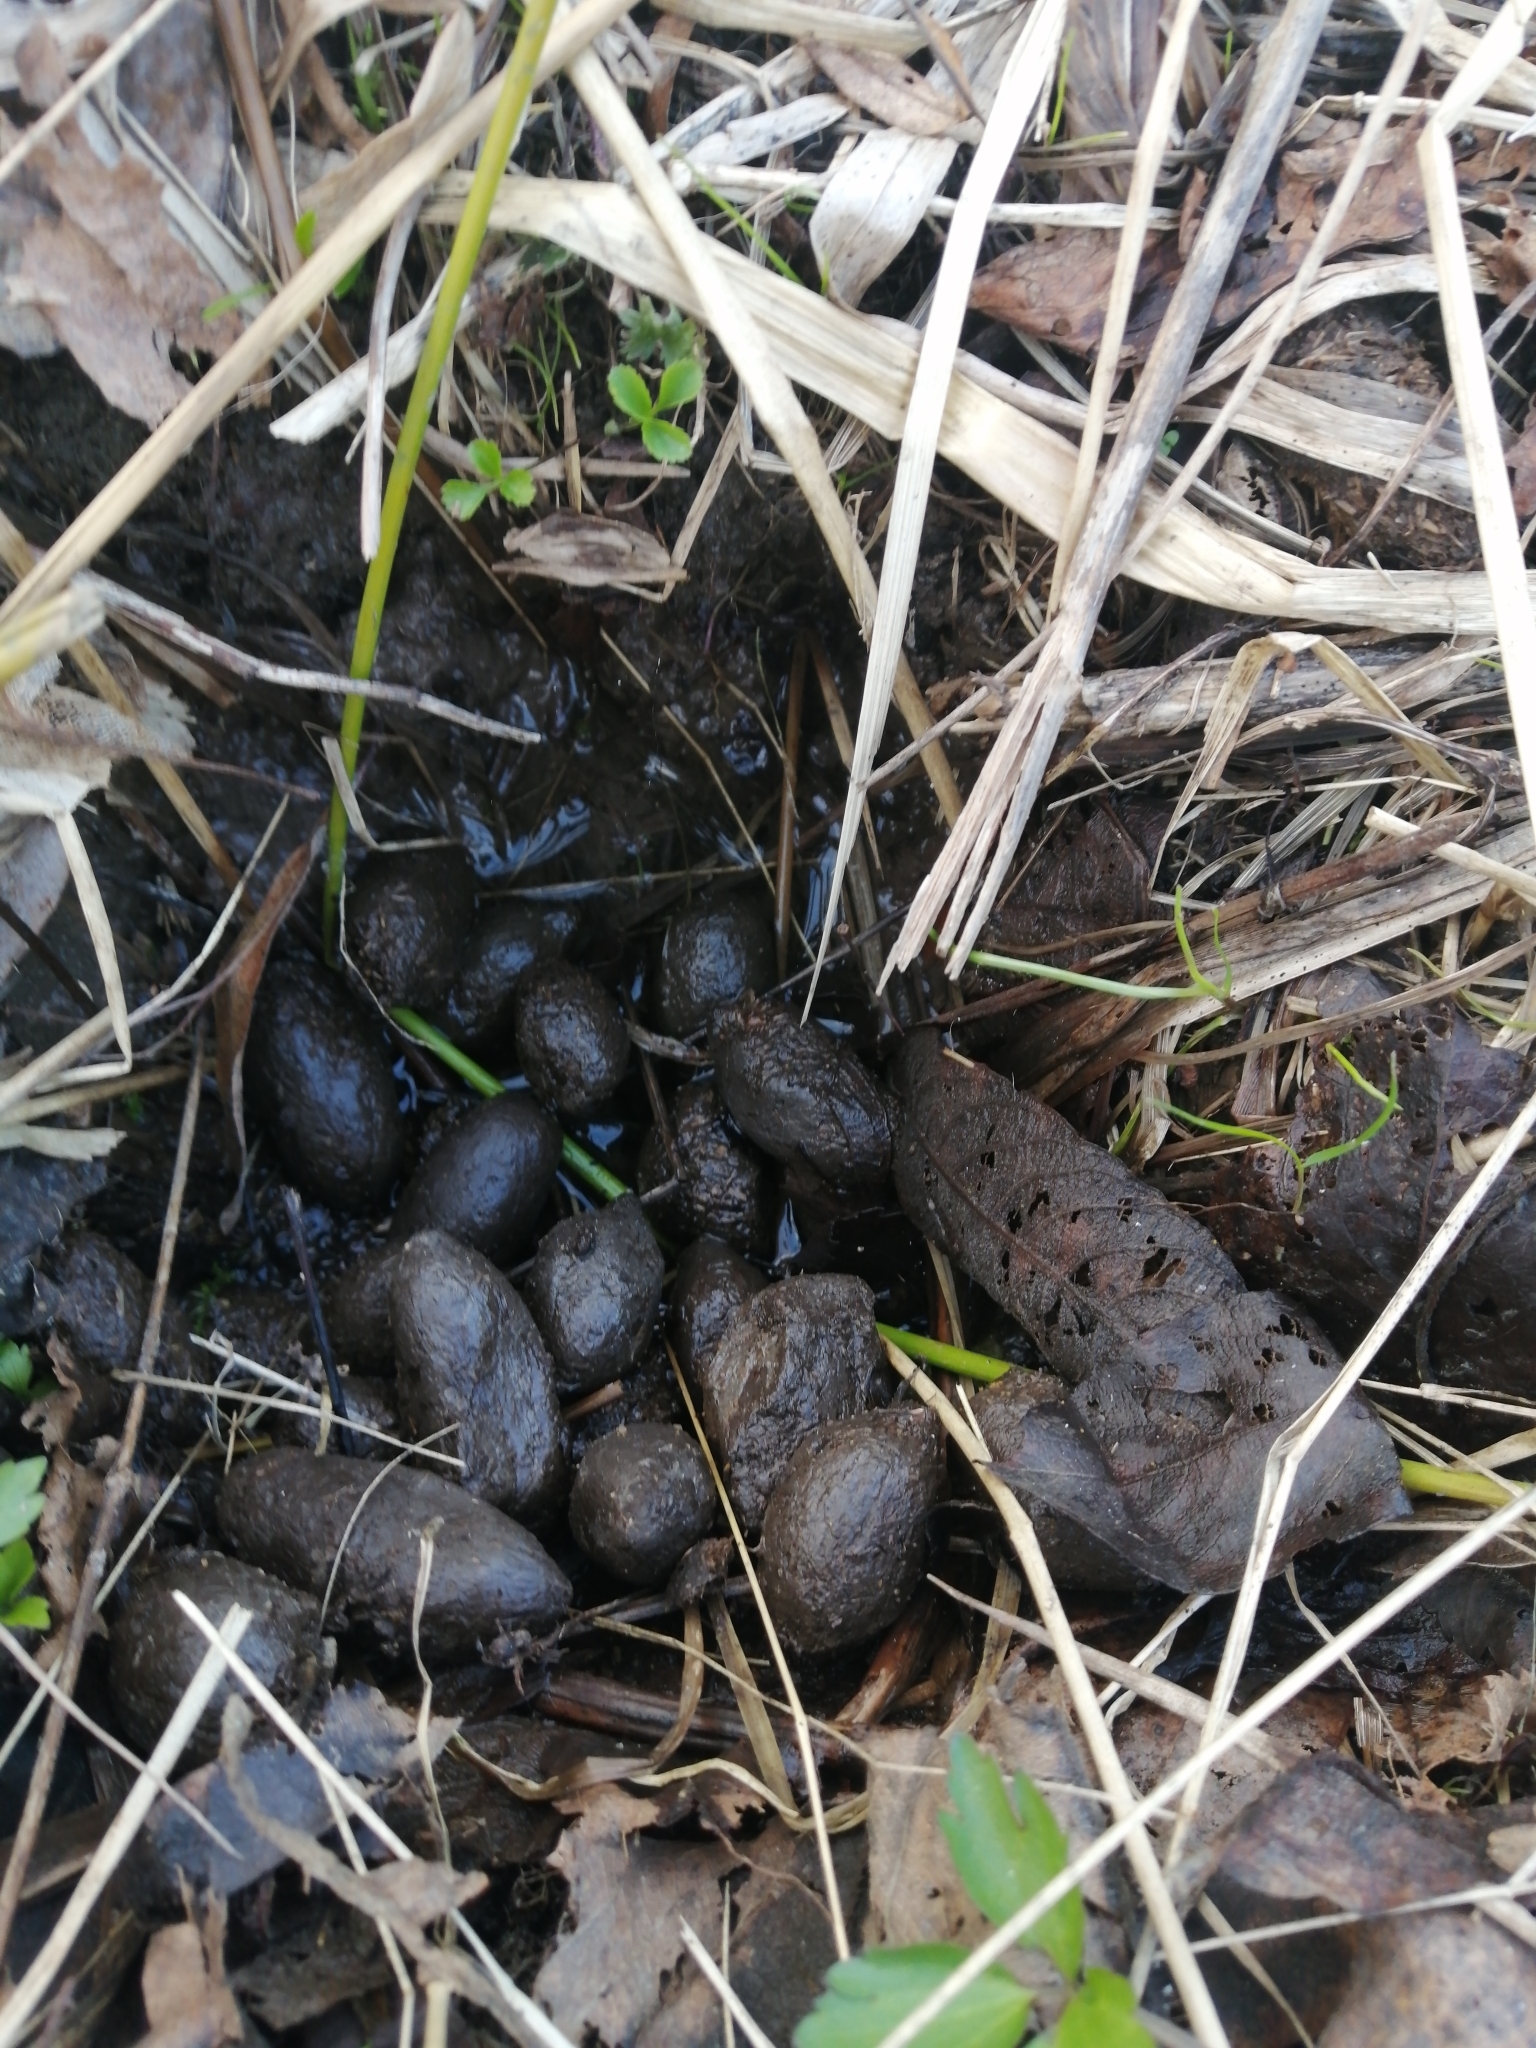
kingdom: Animalia
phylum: Chordata
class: Mammalia
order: Artiodactyla
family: Cervidae
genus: Alces
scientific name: Alces alces
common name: Moose
